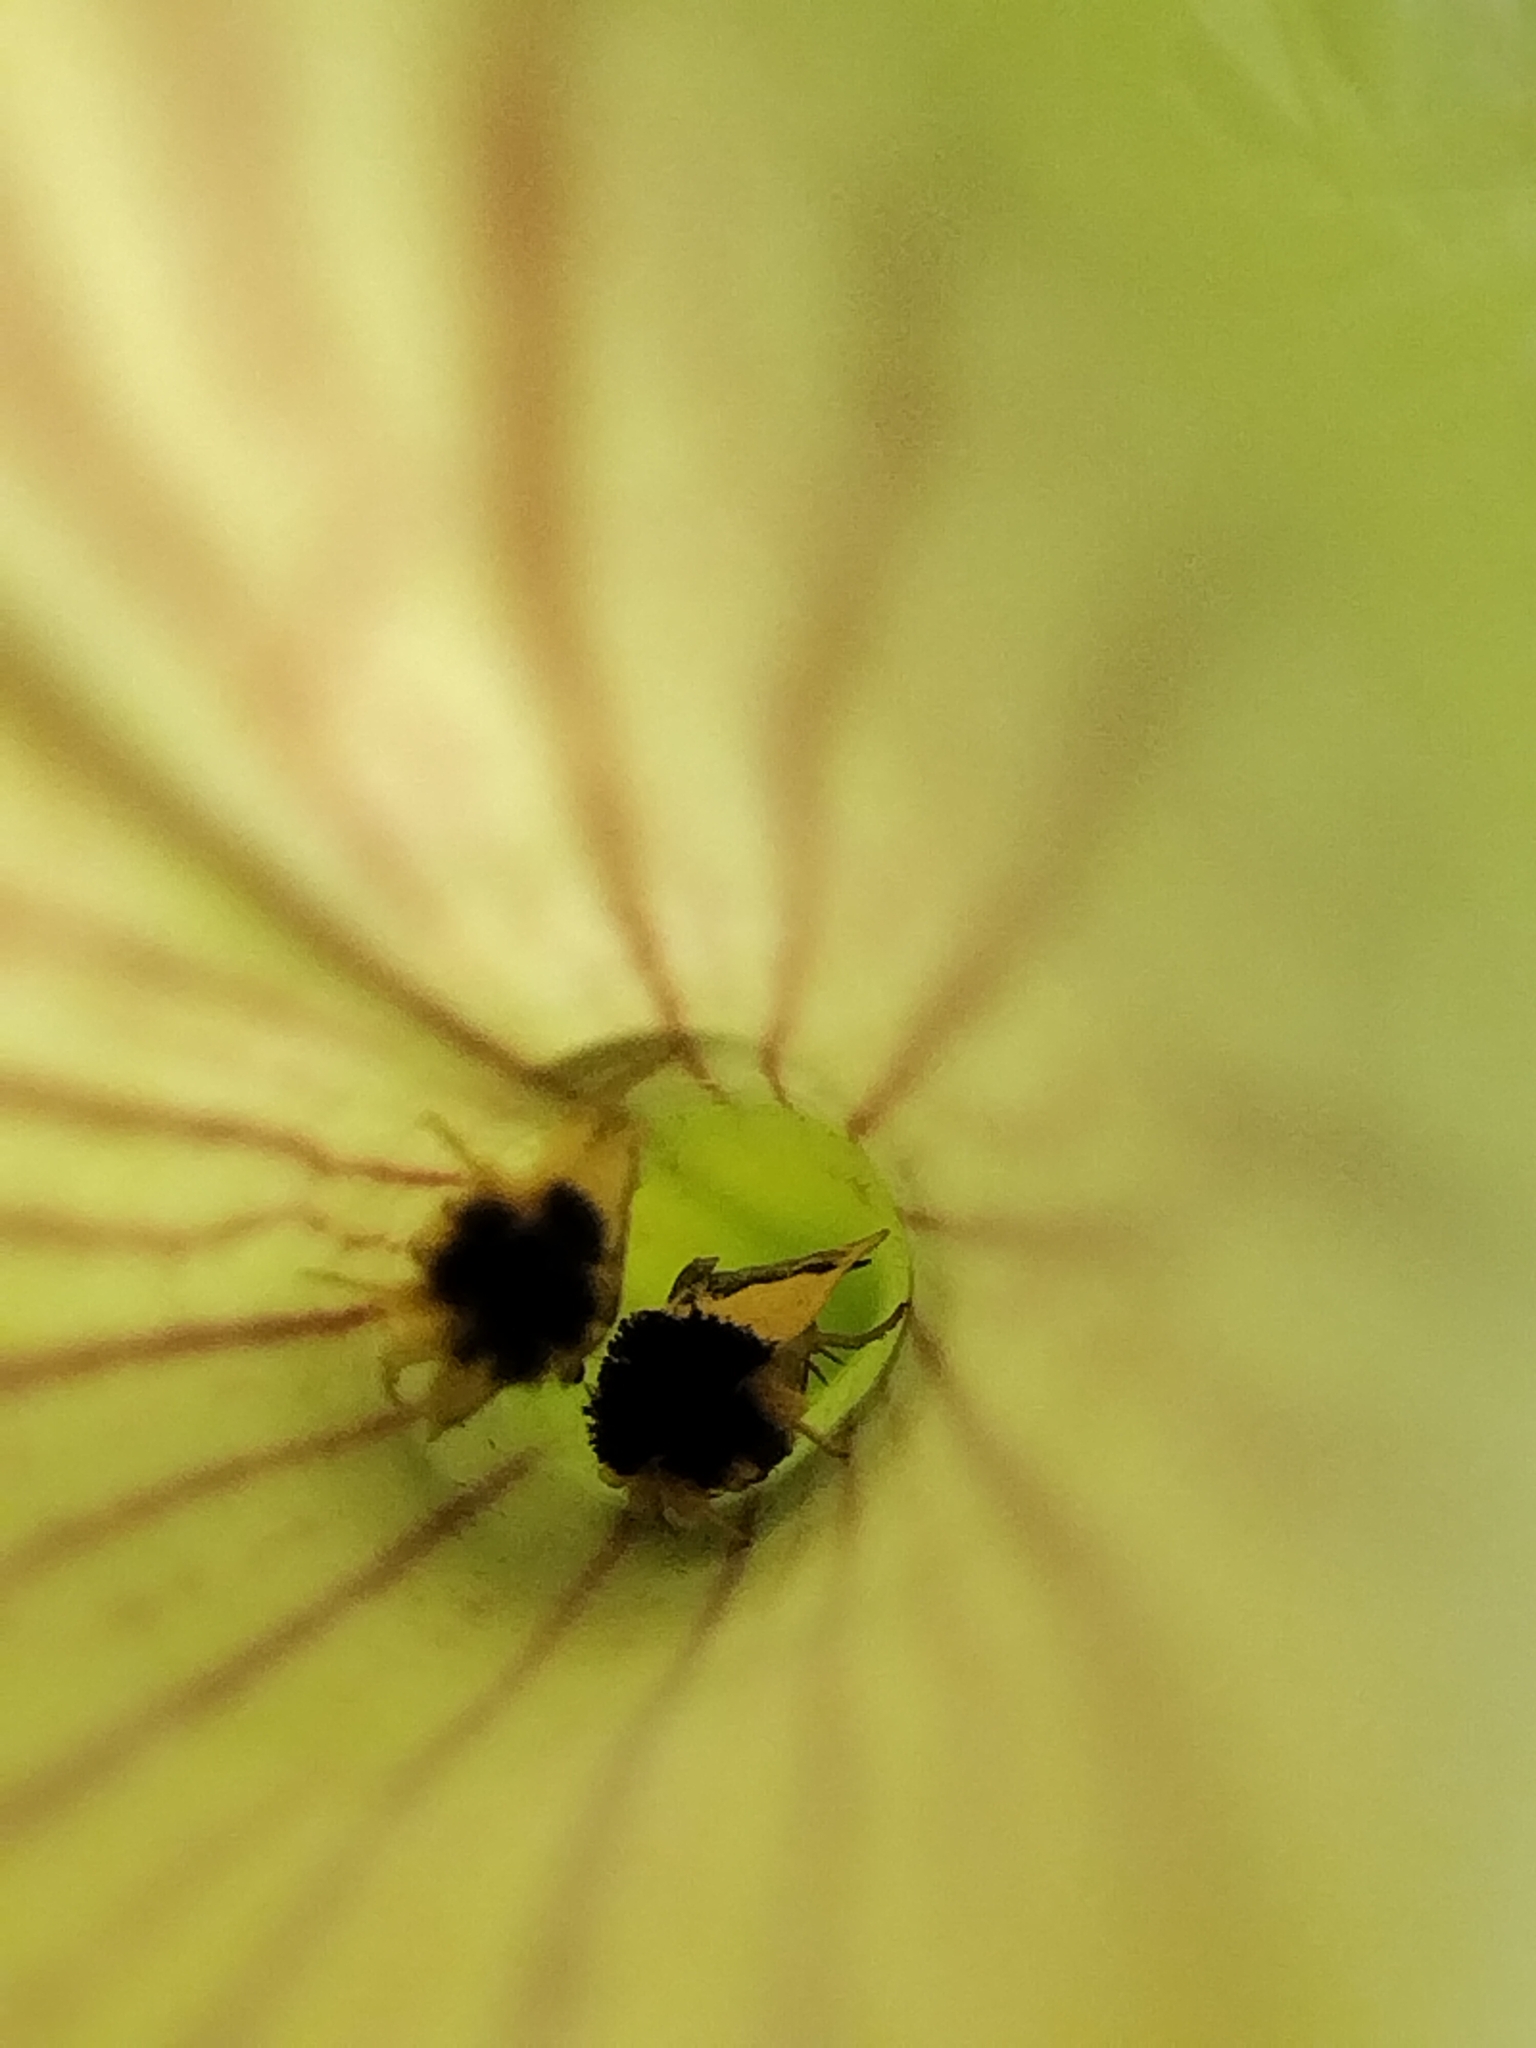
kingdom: Animalia
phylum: Arthropoda
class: Insecta
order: Lepidoptera
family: Noctuidae
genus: Exyra
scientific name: Exyra semicrocea
